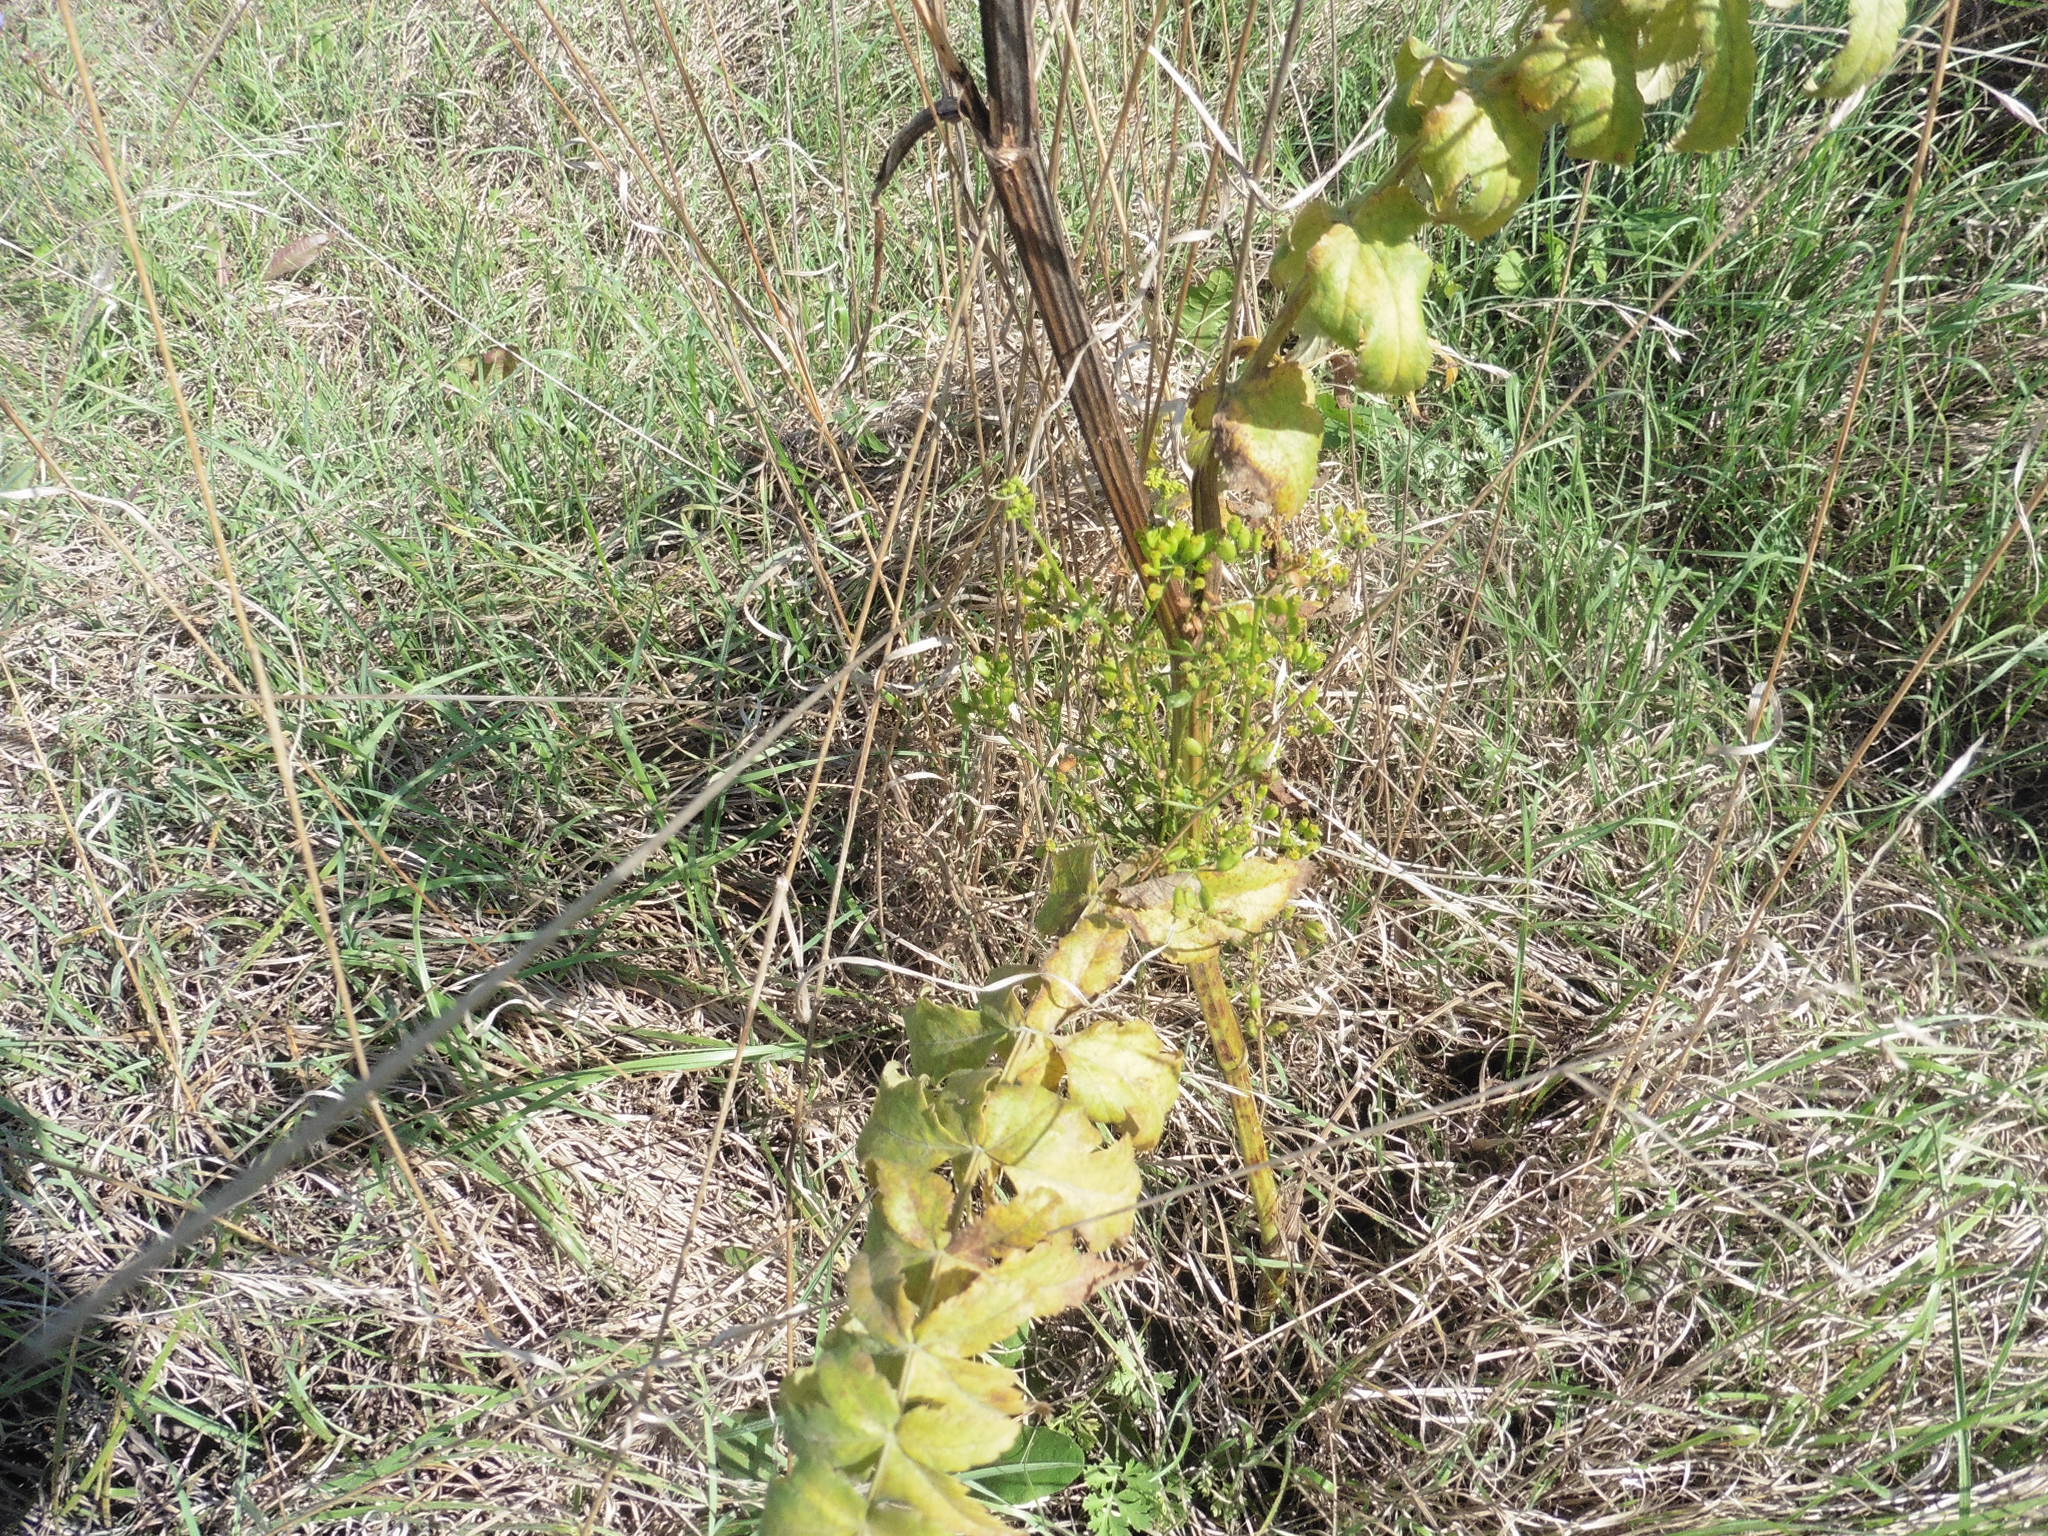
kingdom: Plantae
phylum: Tracheophyta
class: Magnoliopsida
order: Apiales
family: Apiaceae
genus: Pastinaca
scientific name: Pastinaca sativa
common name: Wild parsnip
